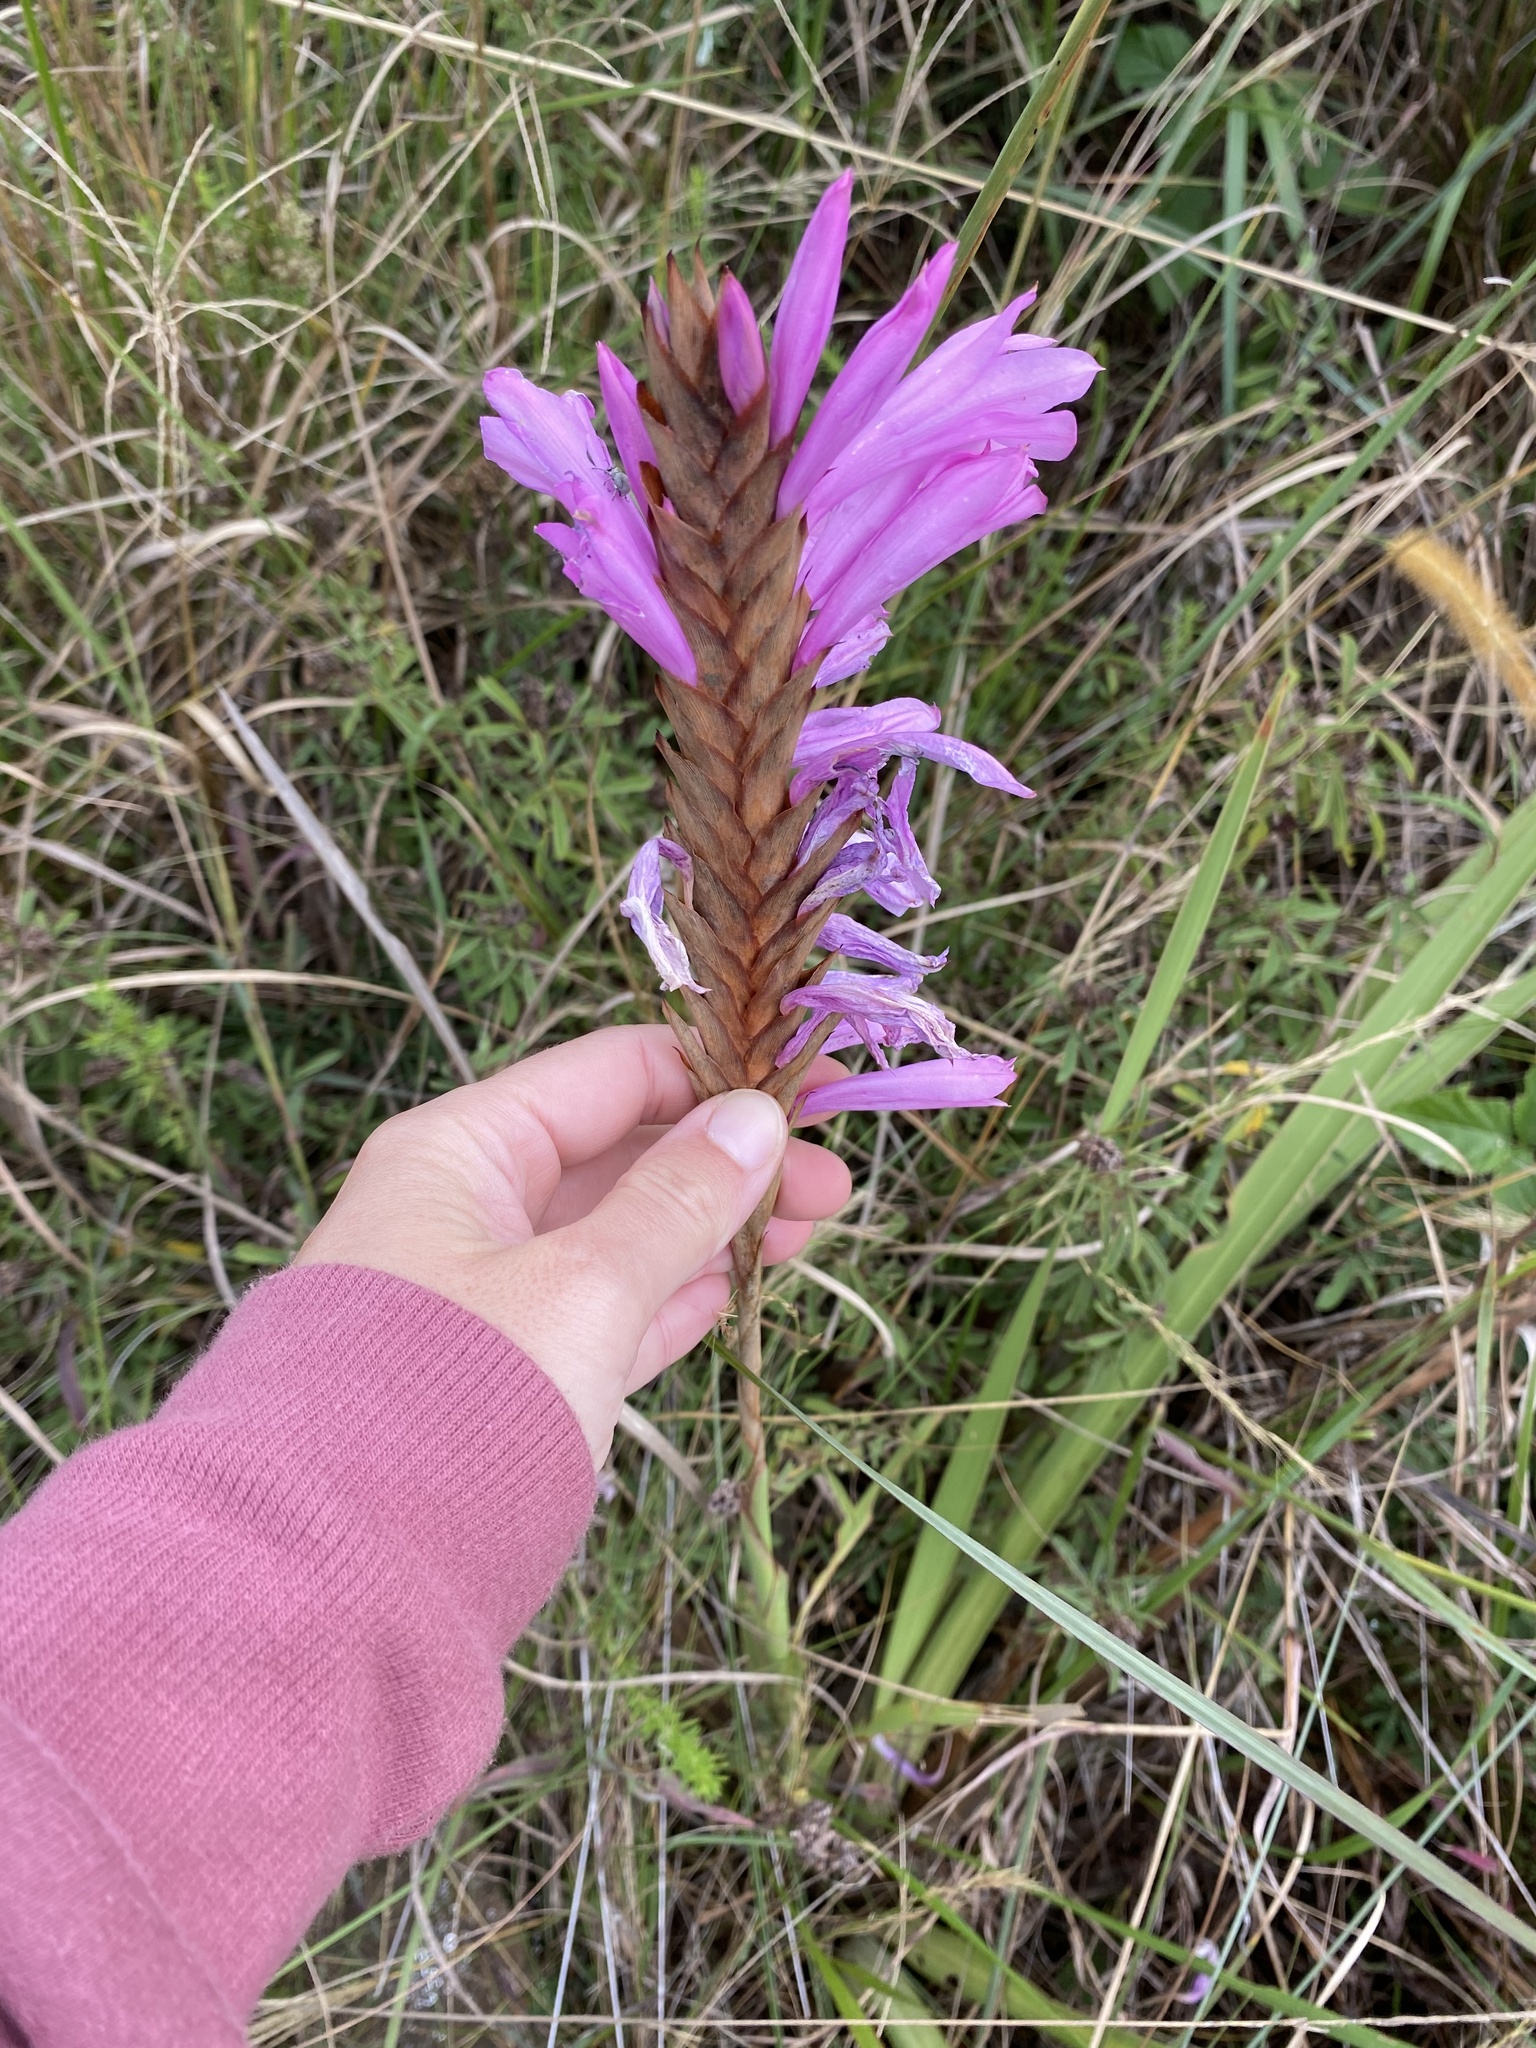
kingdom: Plantae
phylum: Tracheophyta
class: Liliopsida
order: Asparagales
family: Iridaceae
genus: Watsonia
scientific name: Watsonia densiflora
